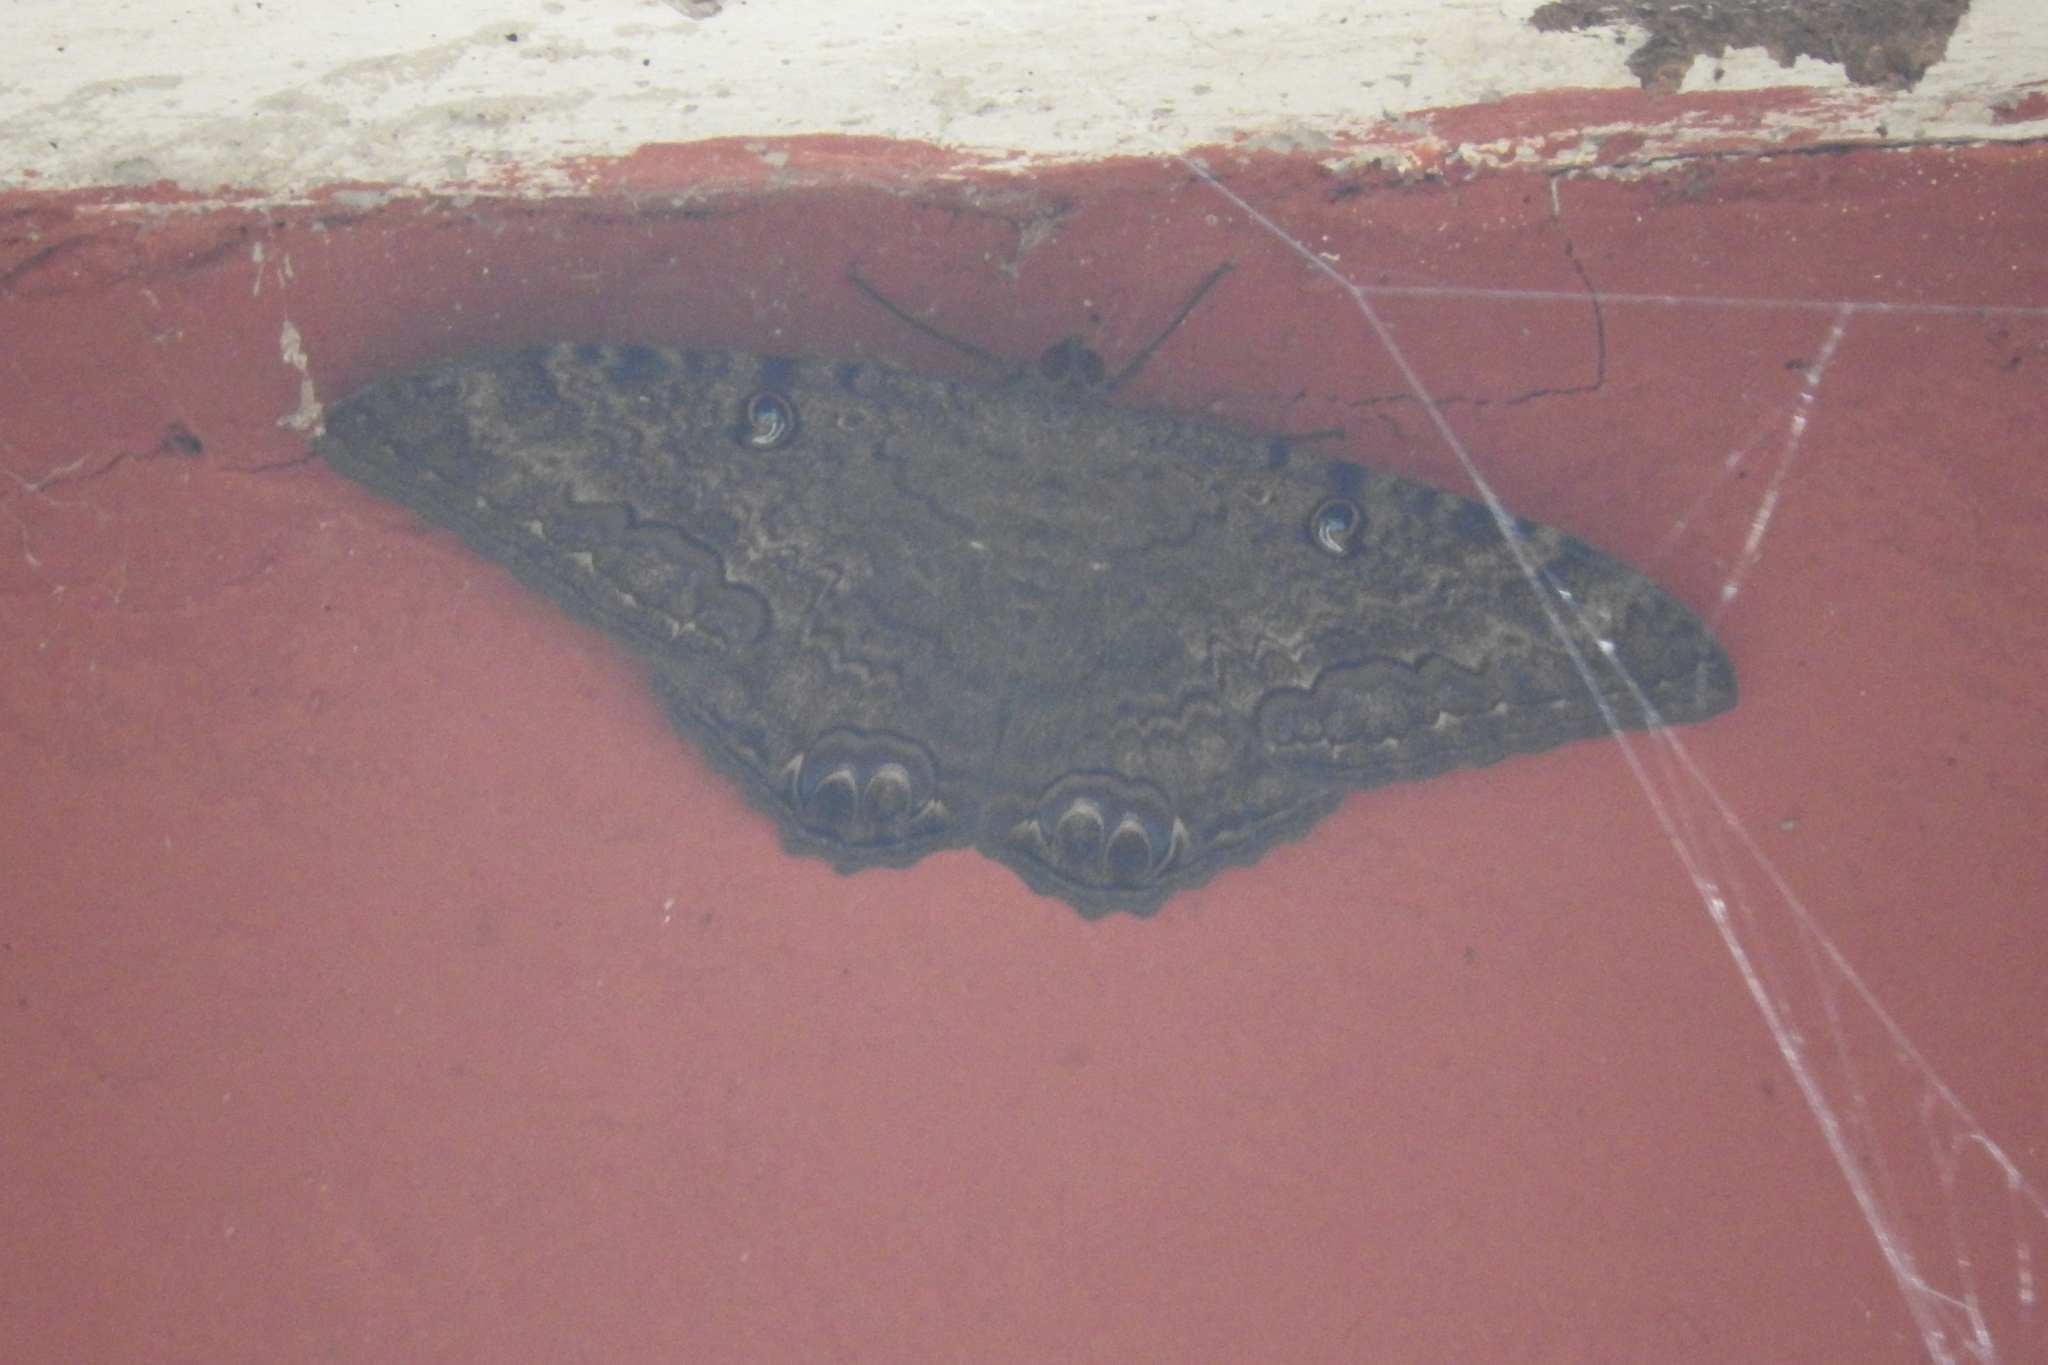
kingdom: Animalia
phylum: Arthropoda
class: Insecta
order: Lepidoptera
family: Erebidae
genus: Ascalapha
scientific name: Ascalapha odorata
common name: Black witch
